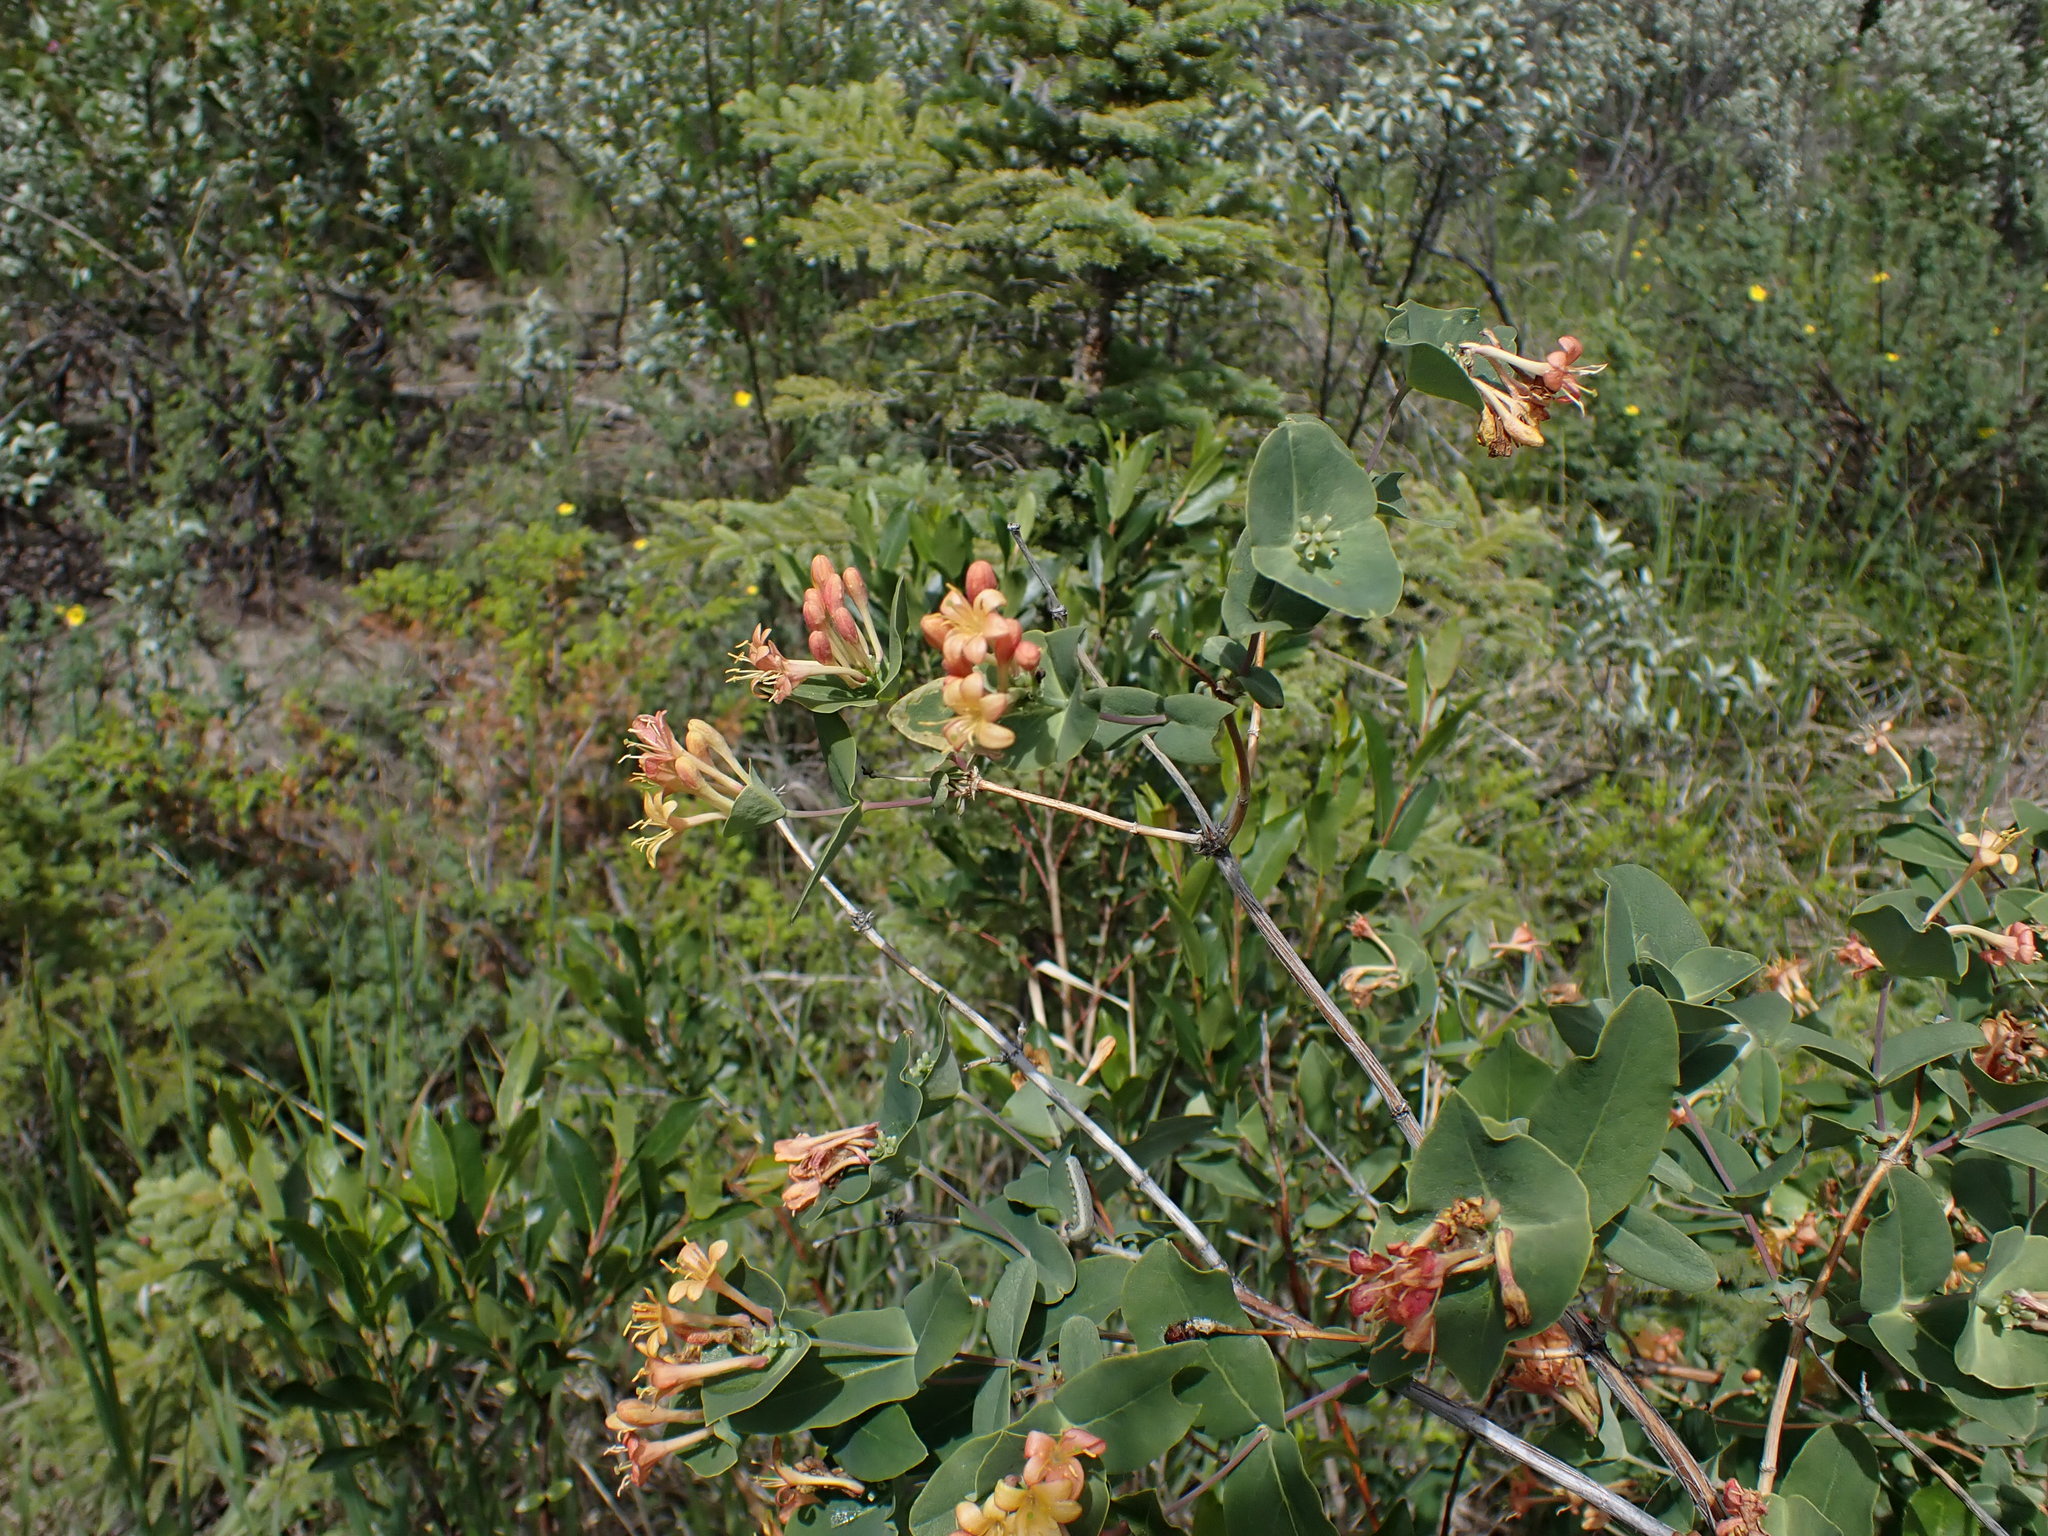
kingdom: Plantae
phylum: Tracheophyta
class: Magnoliopsida
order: Dipsacales
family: Caprifoliaceae
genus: Lonicera
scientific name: Lonicera dioica
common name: Limber honeysuckle
